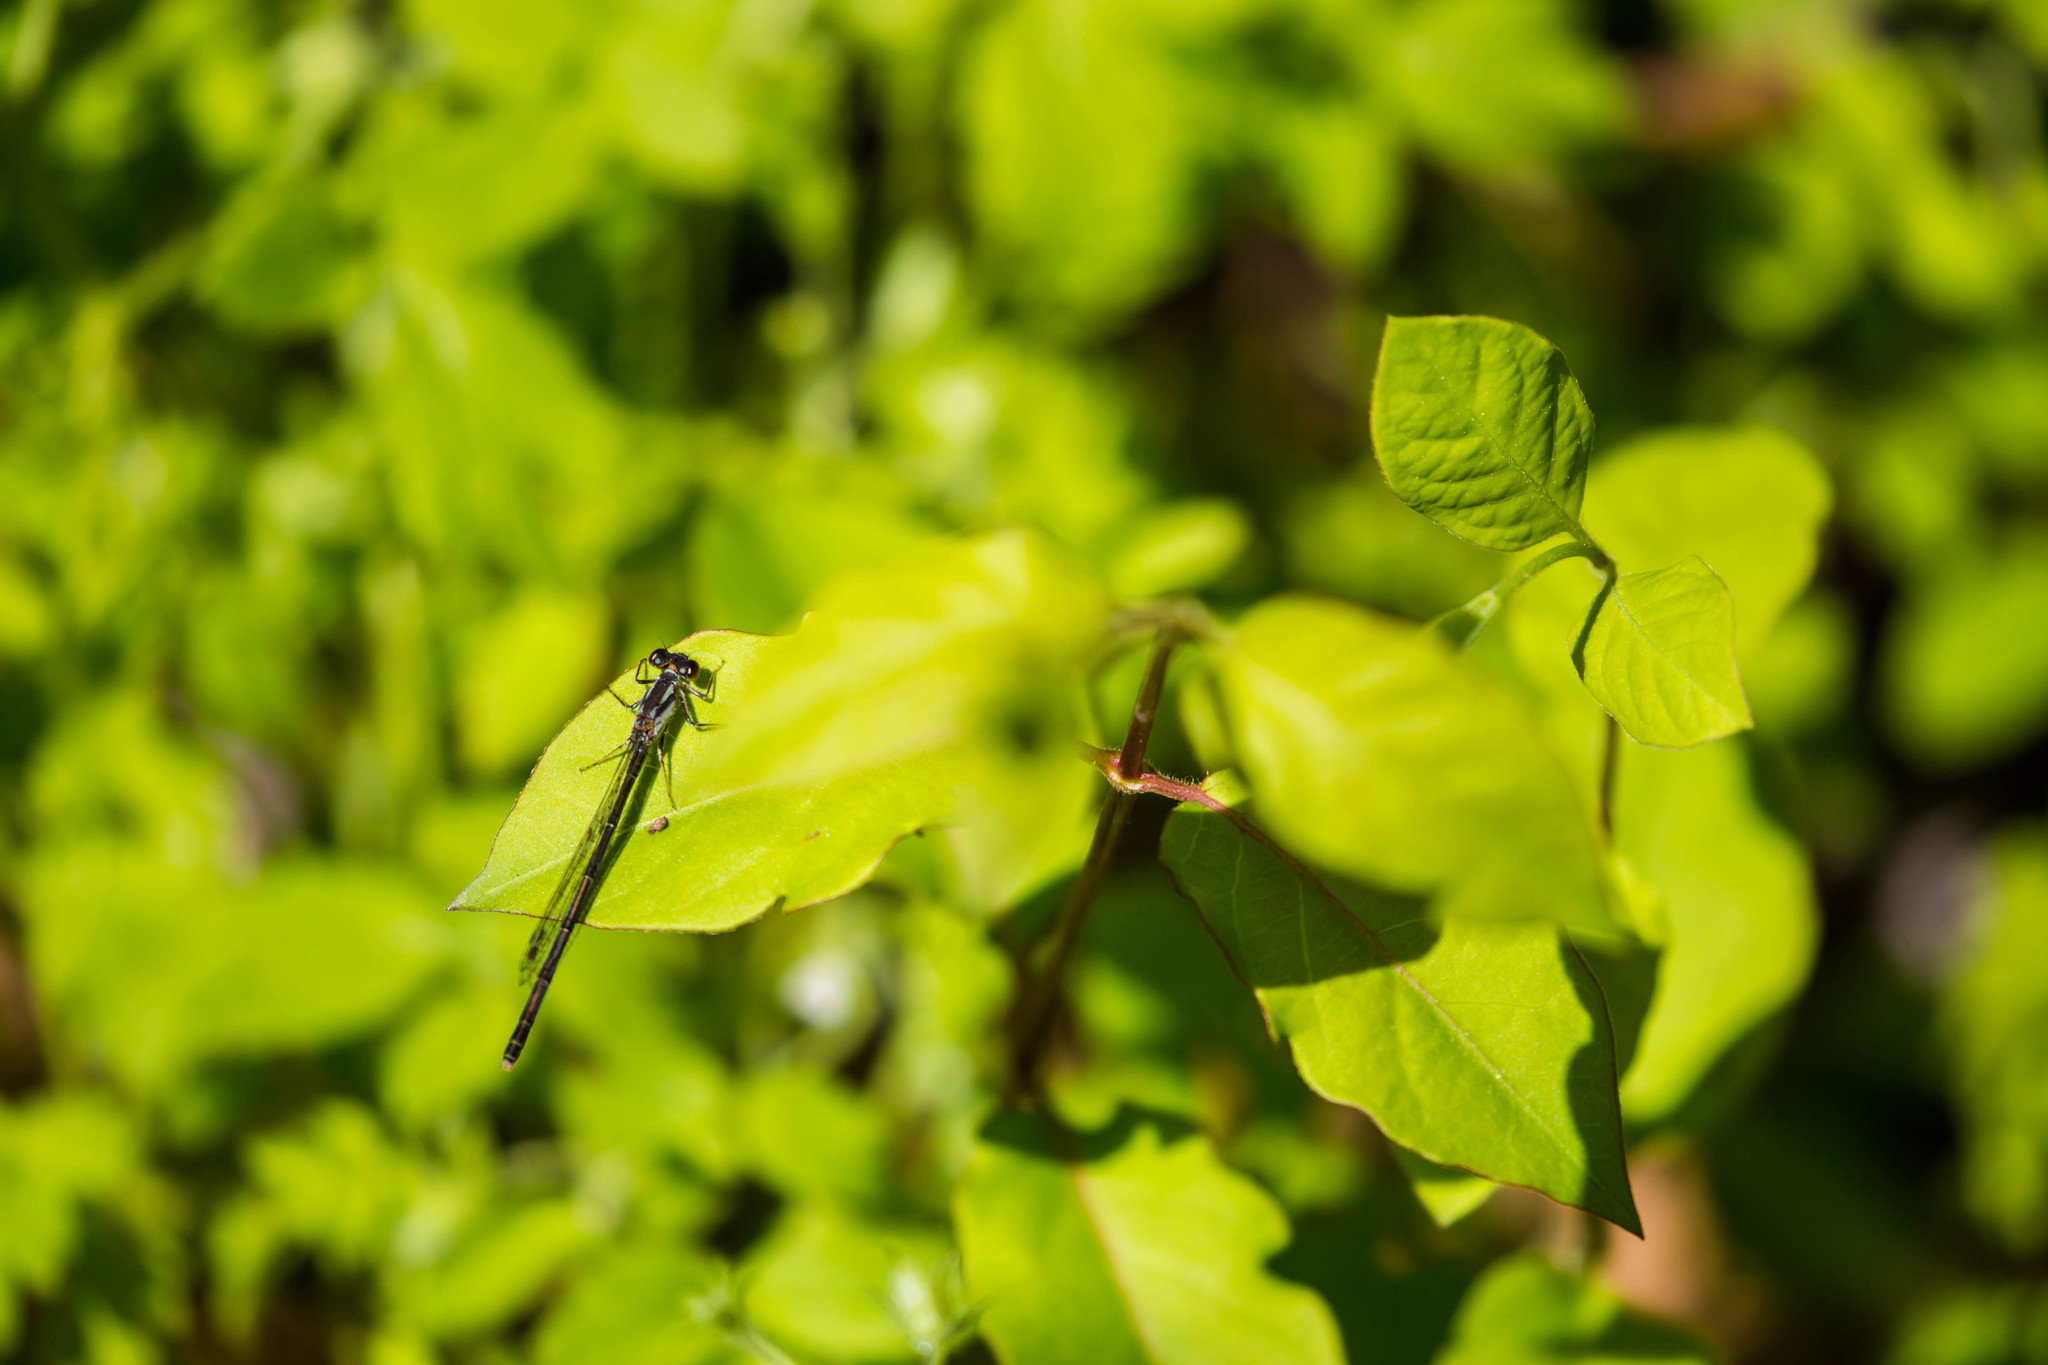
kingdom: Animalia
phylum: Arthropoda
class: Insecta
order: Odonata
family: Coenagrionidae
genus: Ischnura
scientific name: Ischnura posita
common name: Fragile forktail
